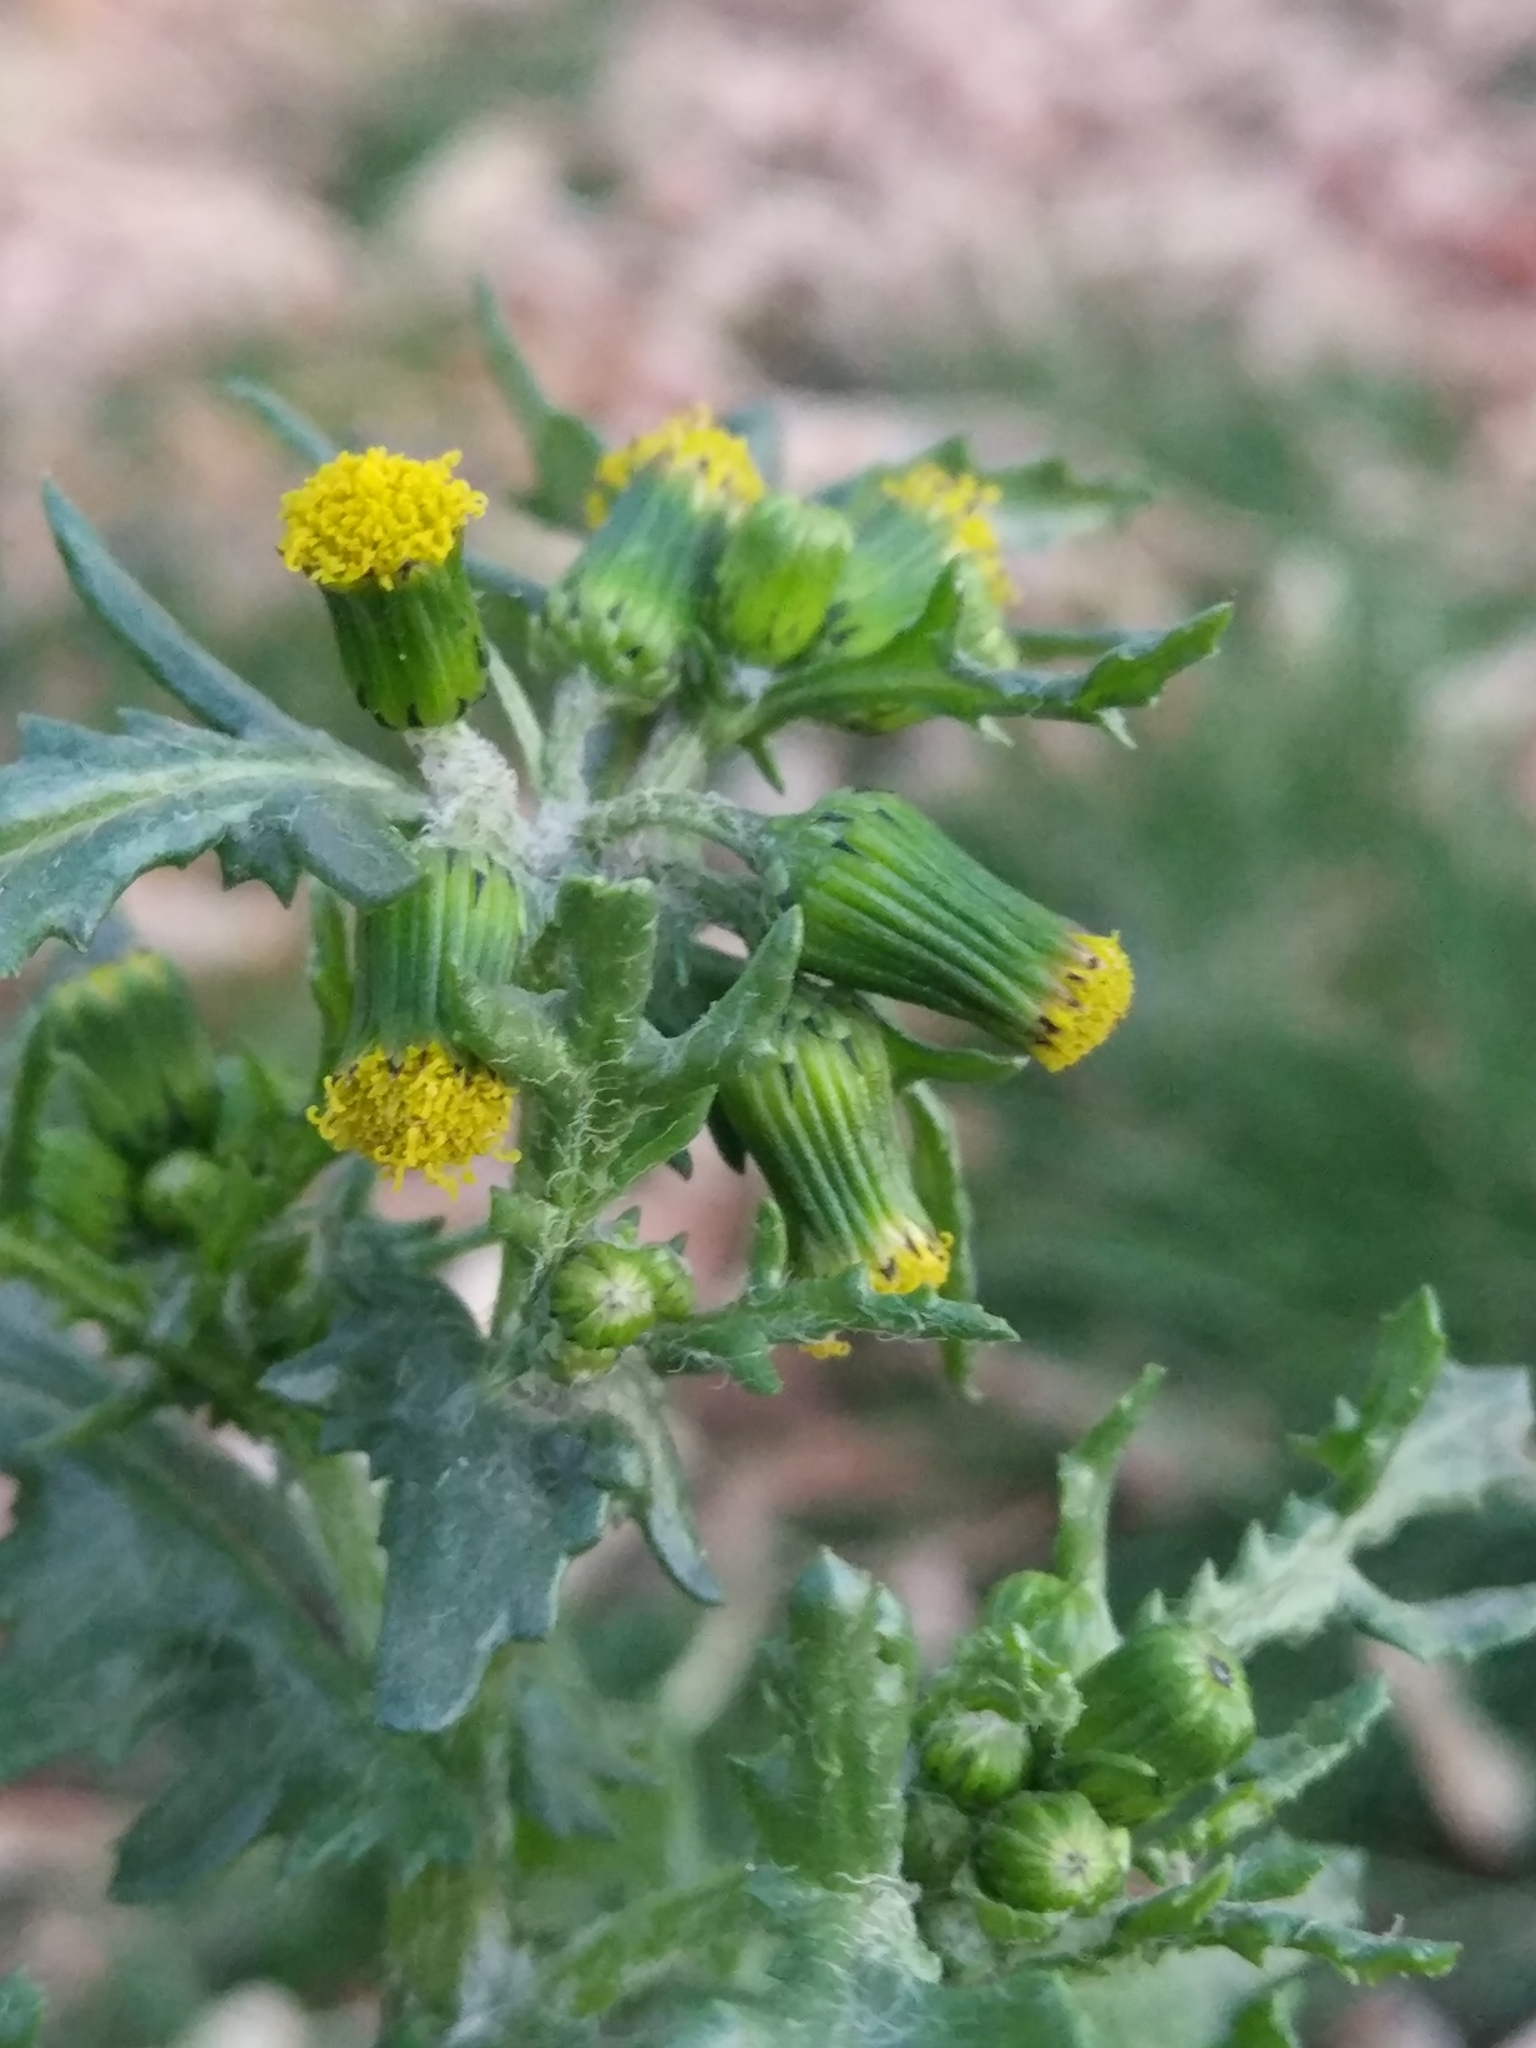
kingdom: Plantae
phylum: Tracheophyta
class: Magnoliopsida
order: Asterales
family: Asteraceae
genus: Senecio
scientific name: Senecio vulgaris
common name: Old-man-in-the-spring
